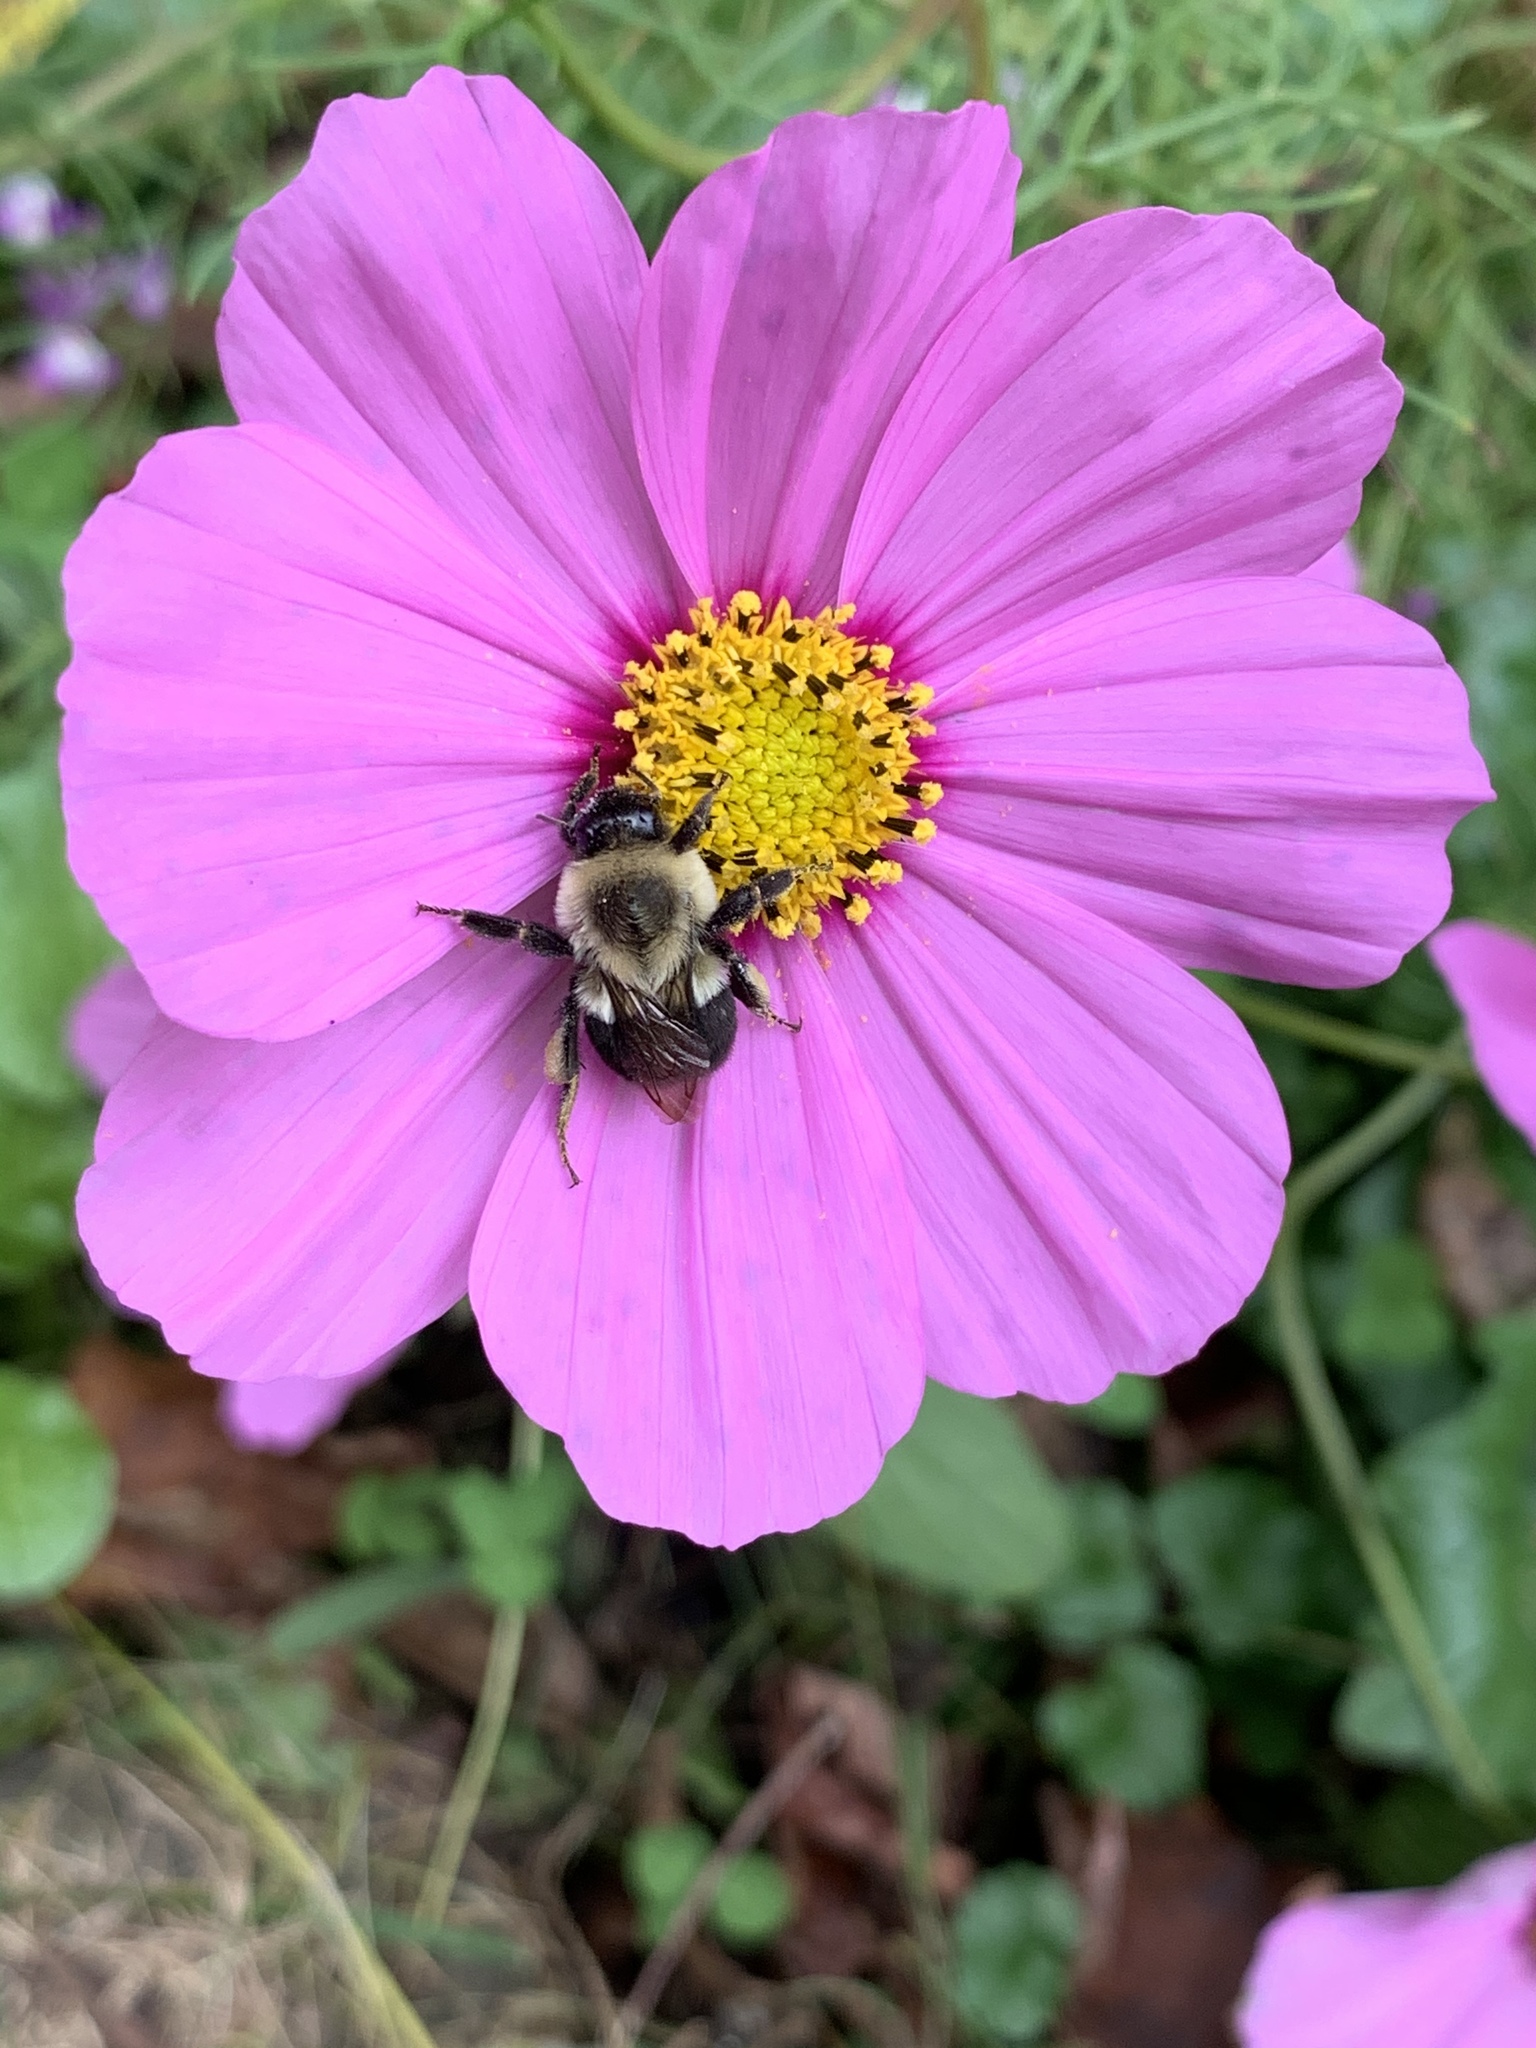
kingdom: Animalia
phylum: Arthropoda
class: Insecta
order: Hymenoptera
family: Apidae
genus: Bombus
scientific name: Bombus impatiens
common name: Common eastern bumble bee
